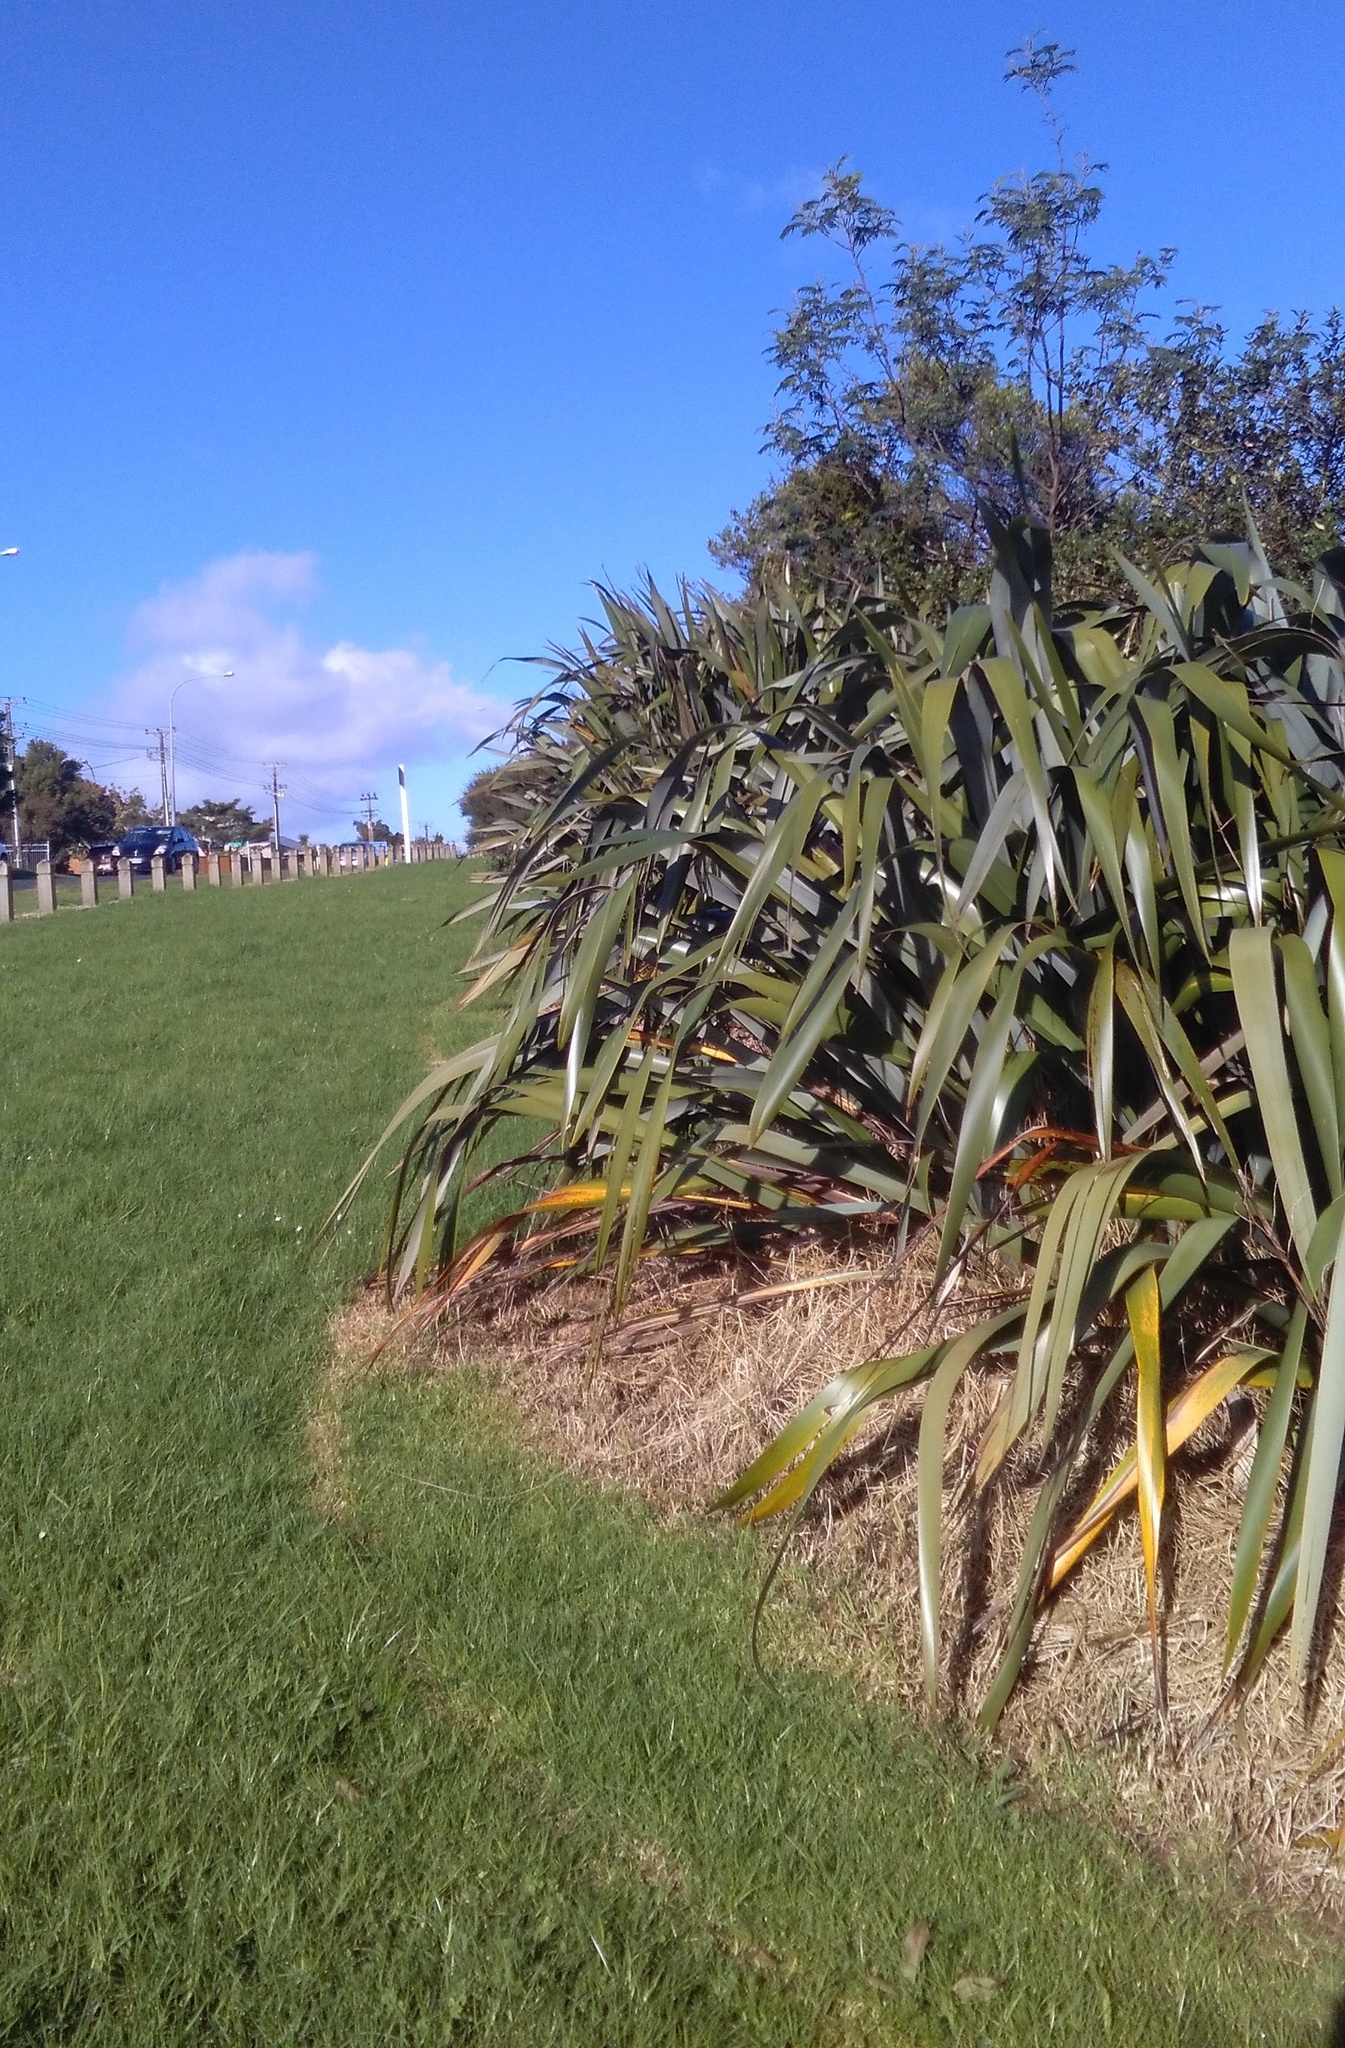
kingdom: Plantae
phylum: Tracheophyta
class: Liliopsida
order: Poales
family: Poaceae
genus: Cenchrus
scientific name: Cenchrus clandestinus
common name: Kikuyugrass
